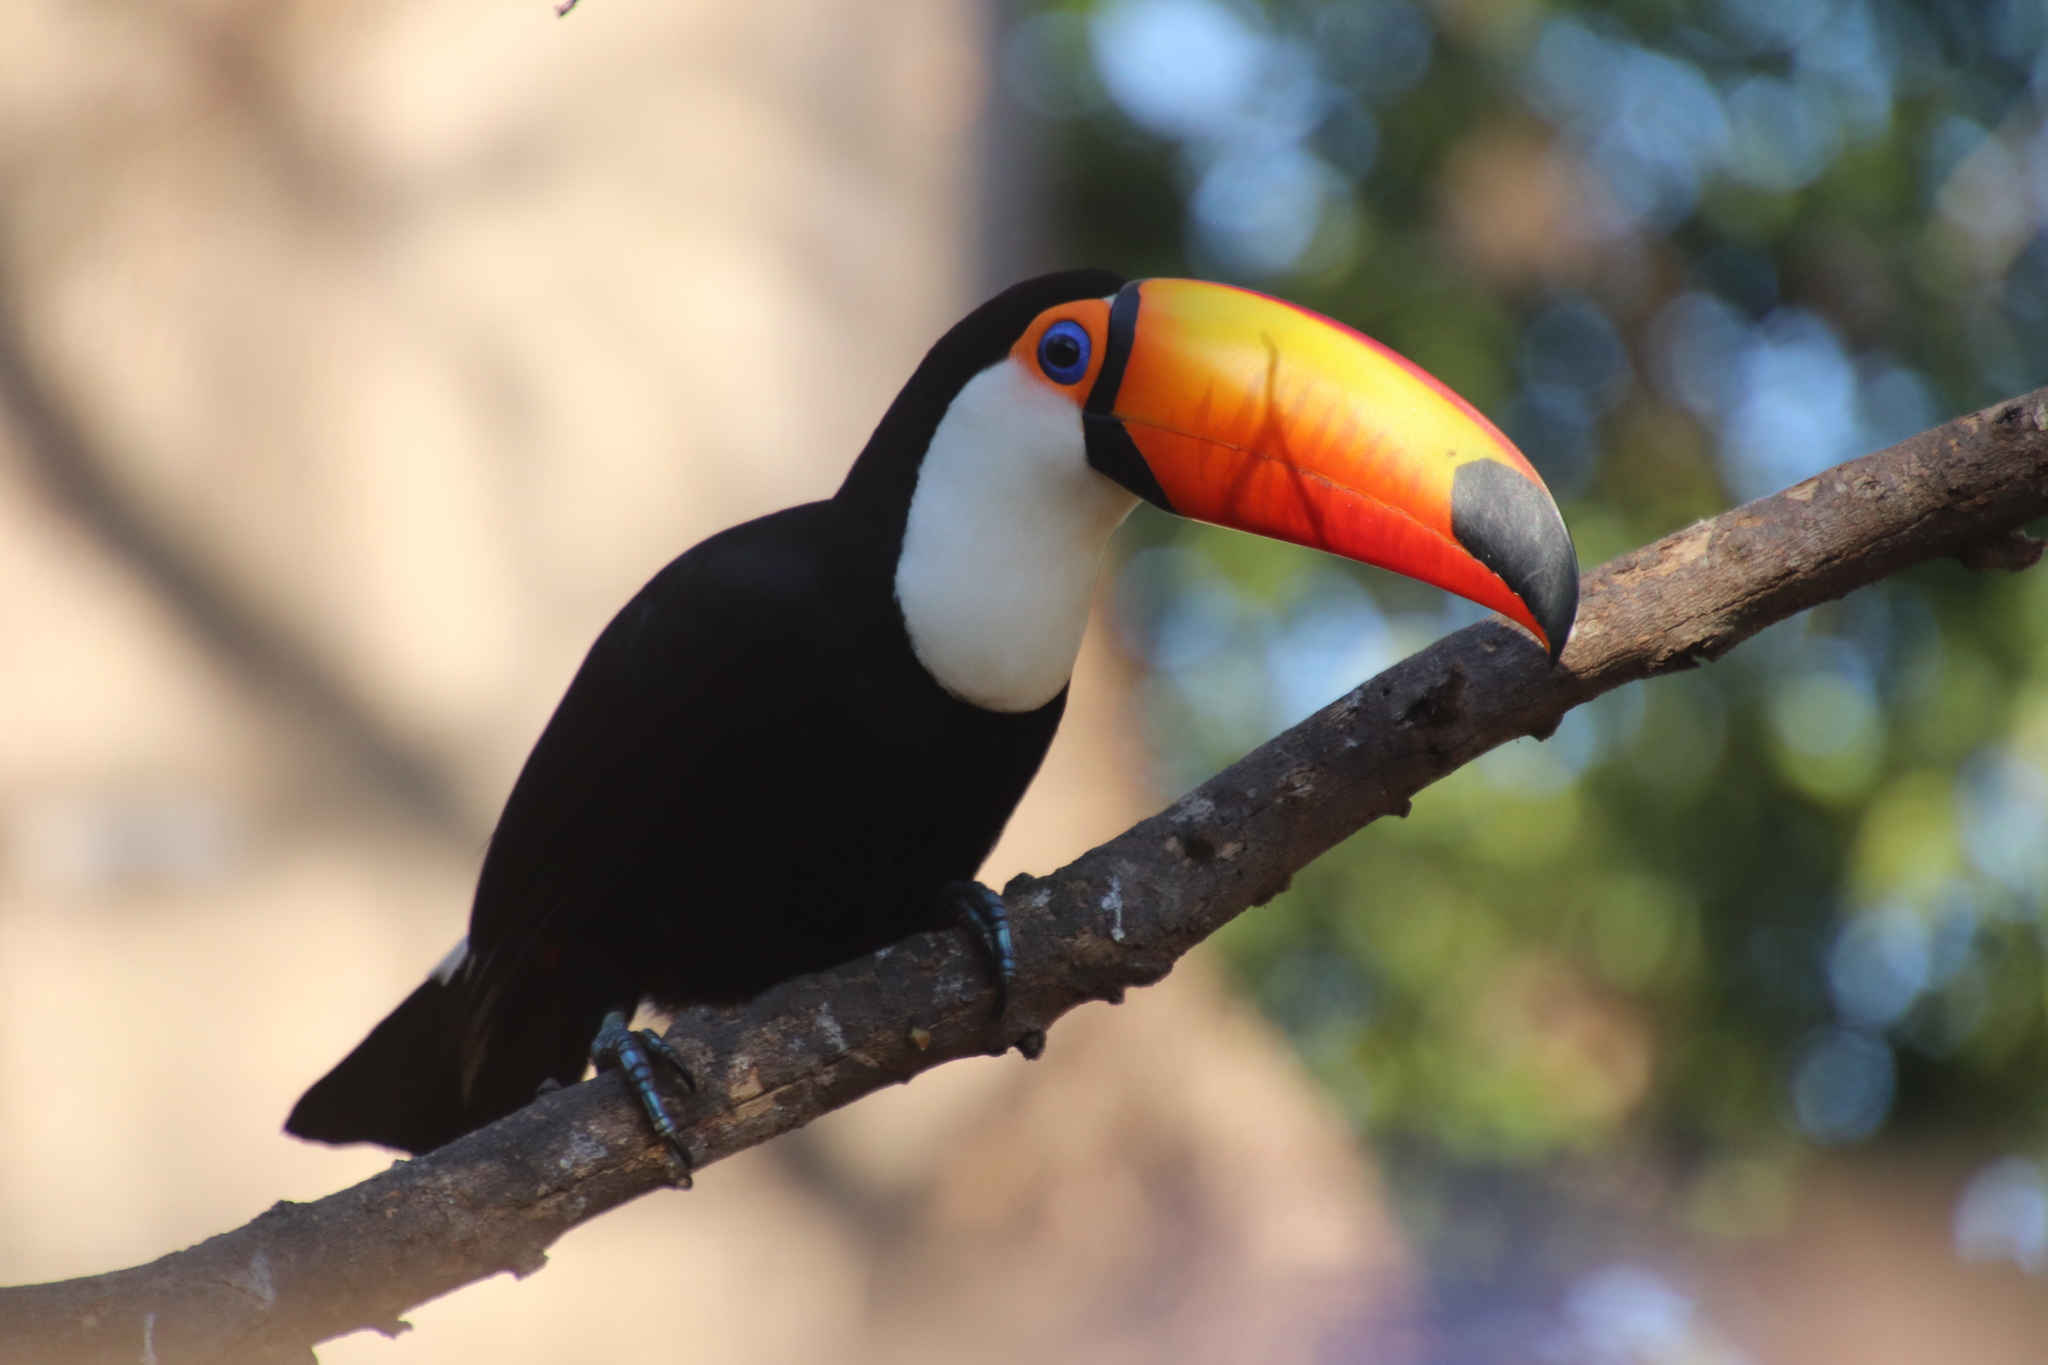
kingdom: Animalia
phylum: Chordata
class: Aves
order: Piciformes
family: Ramphastidae
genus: Ramphastos
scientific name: Ramphastos toco
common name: Toco toucan
